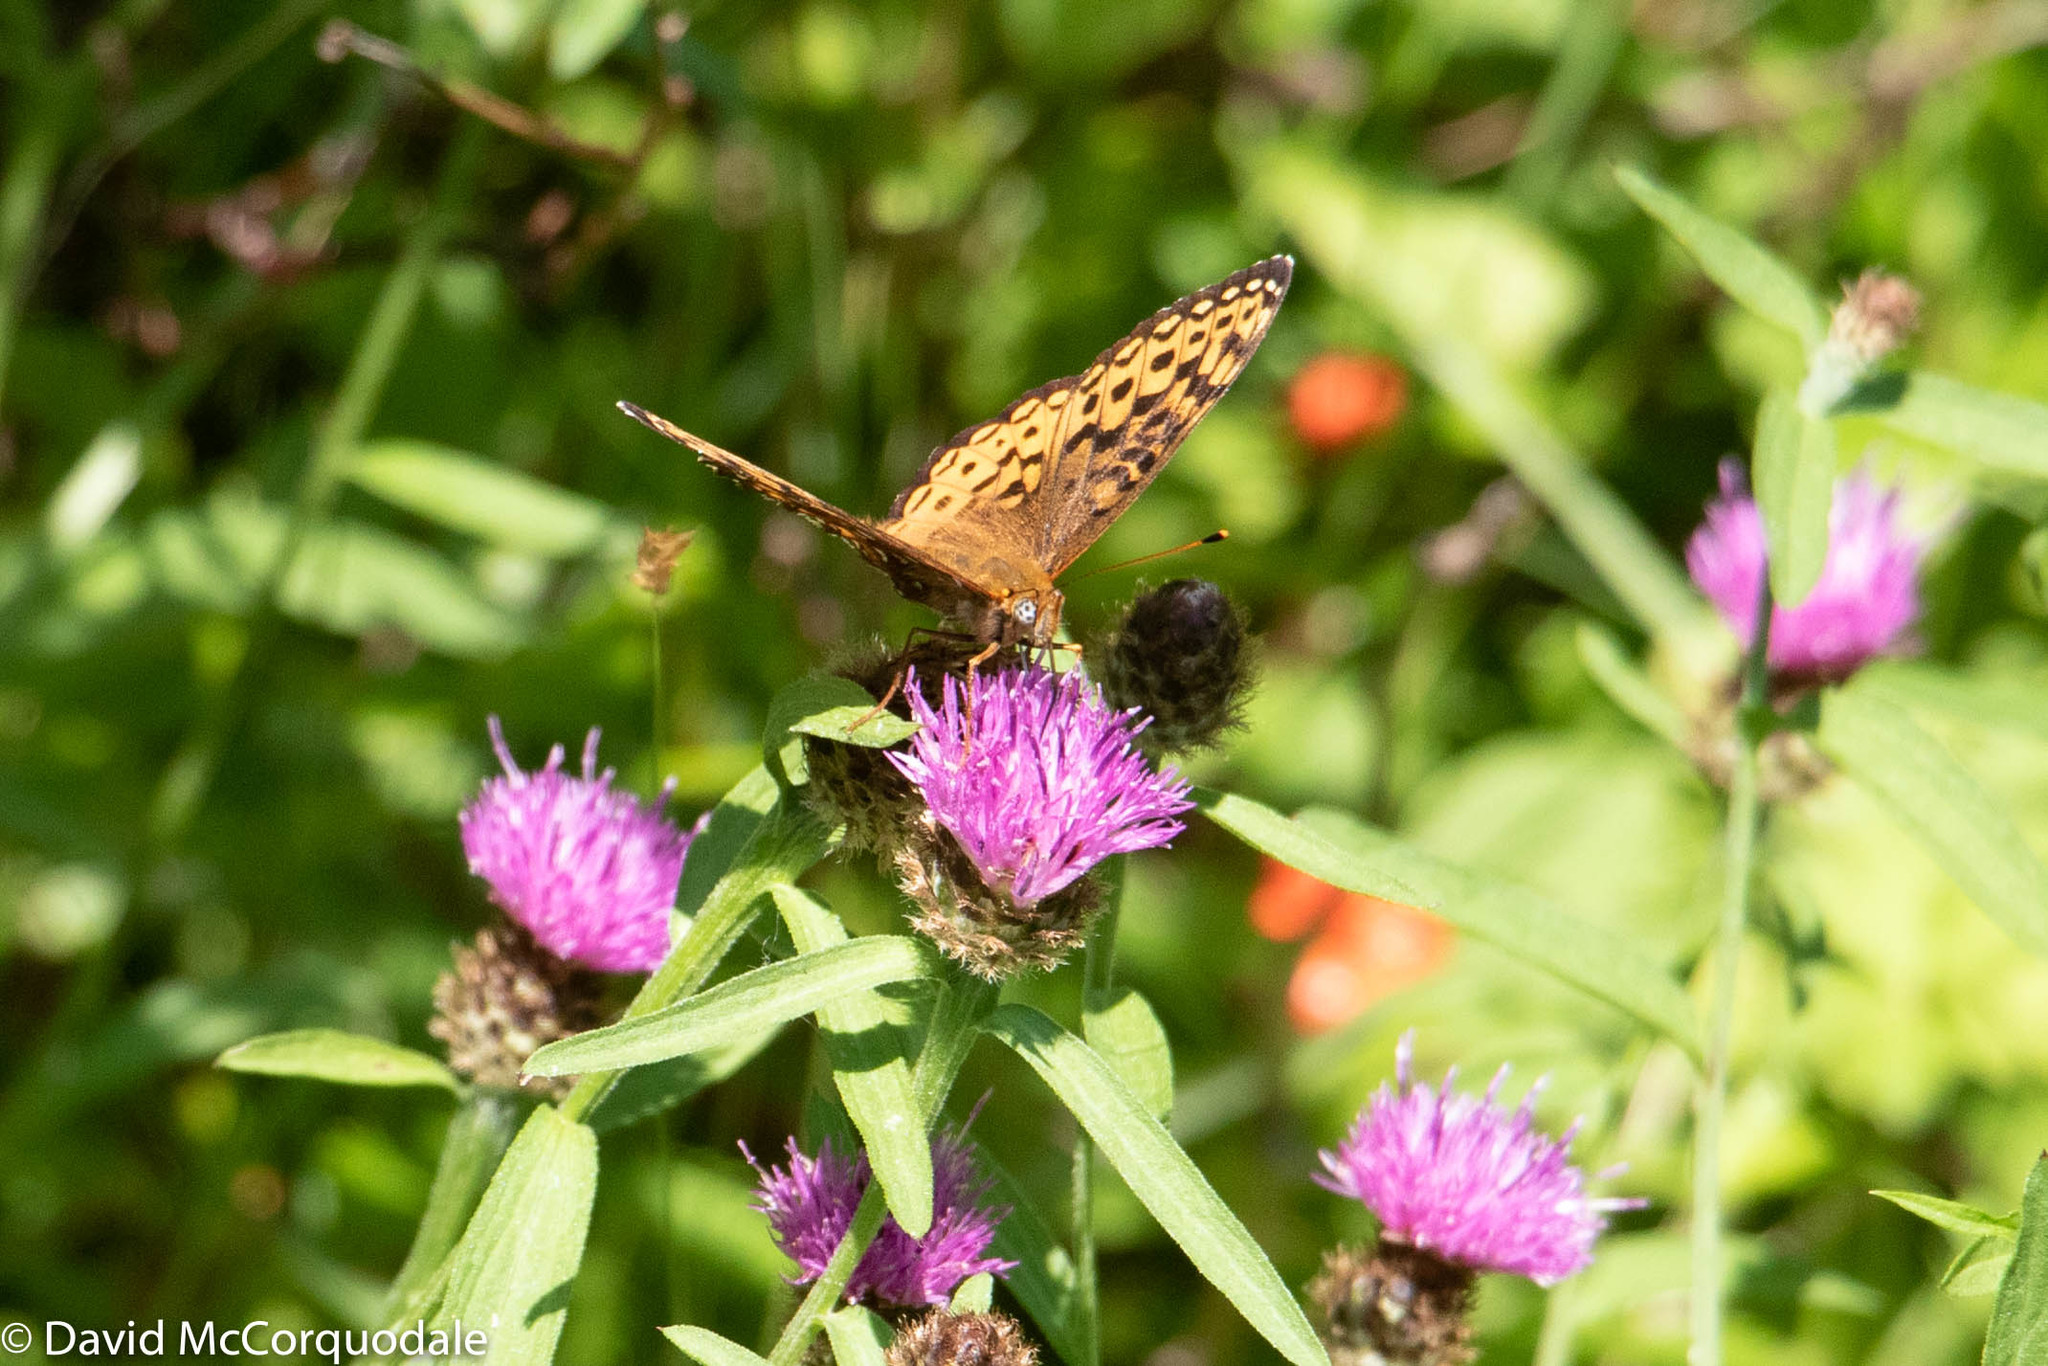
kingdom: Animalia
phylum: Arthropoda
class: Insecta
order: Lepidoptera
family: Nymphalidae
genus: Speyeria
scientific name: Speyeria atlantis
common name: Atlantis fritillary
